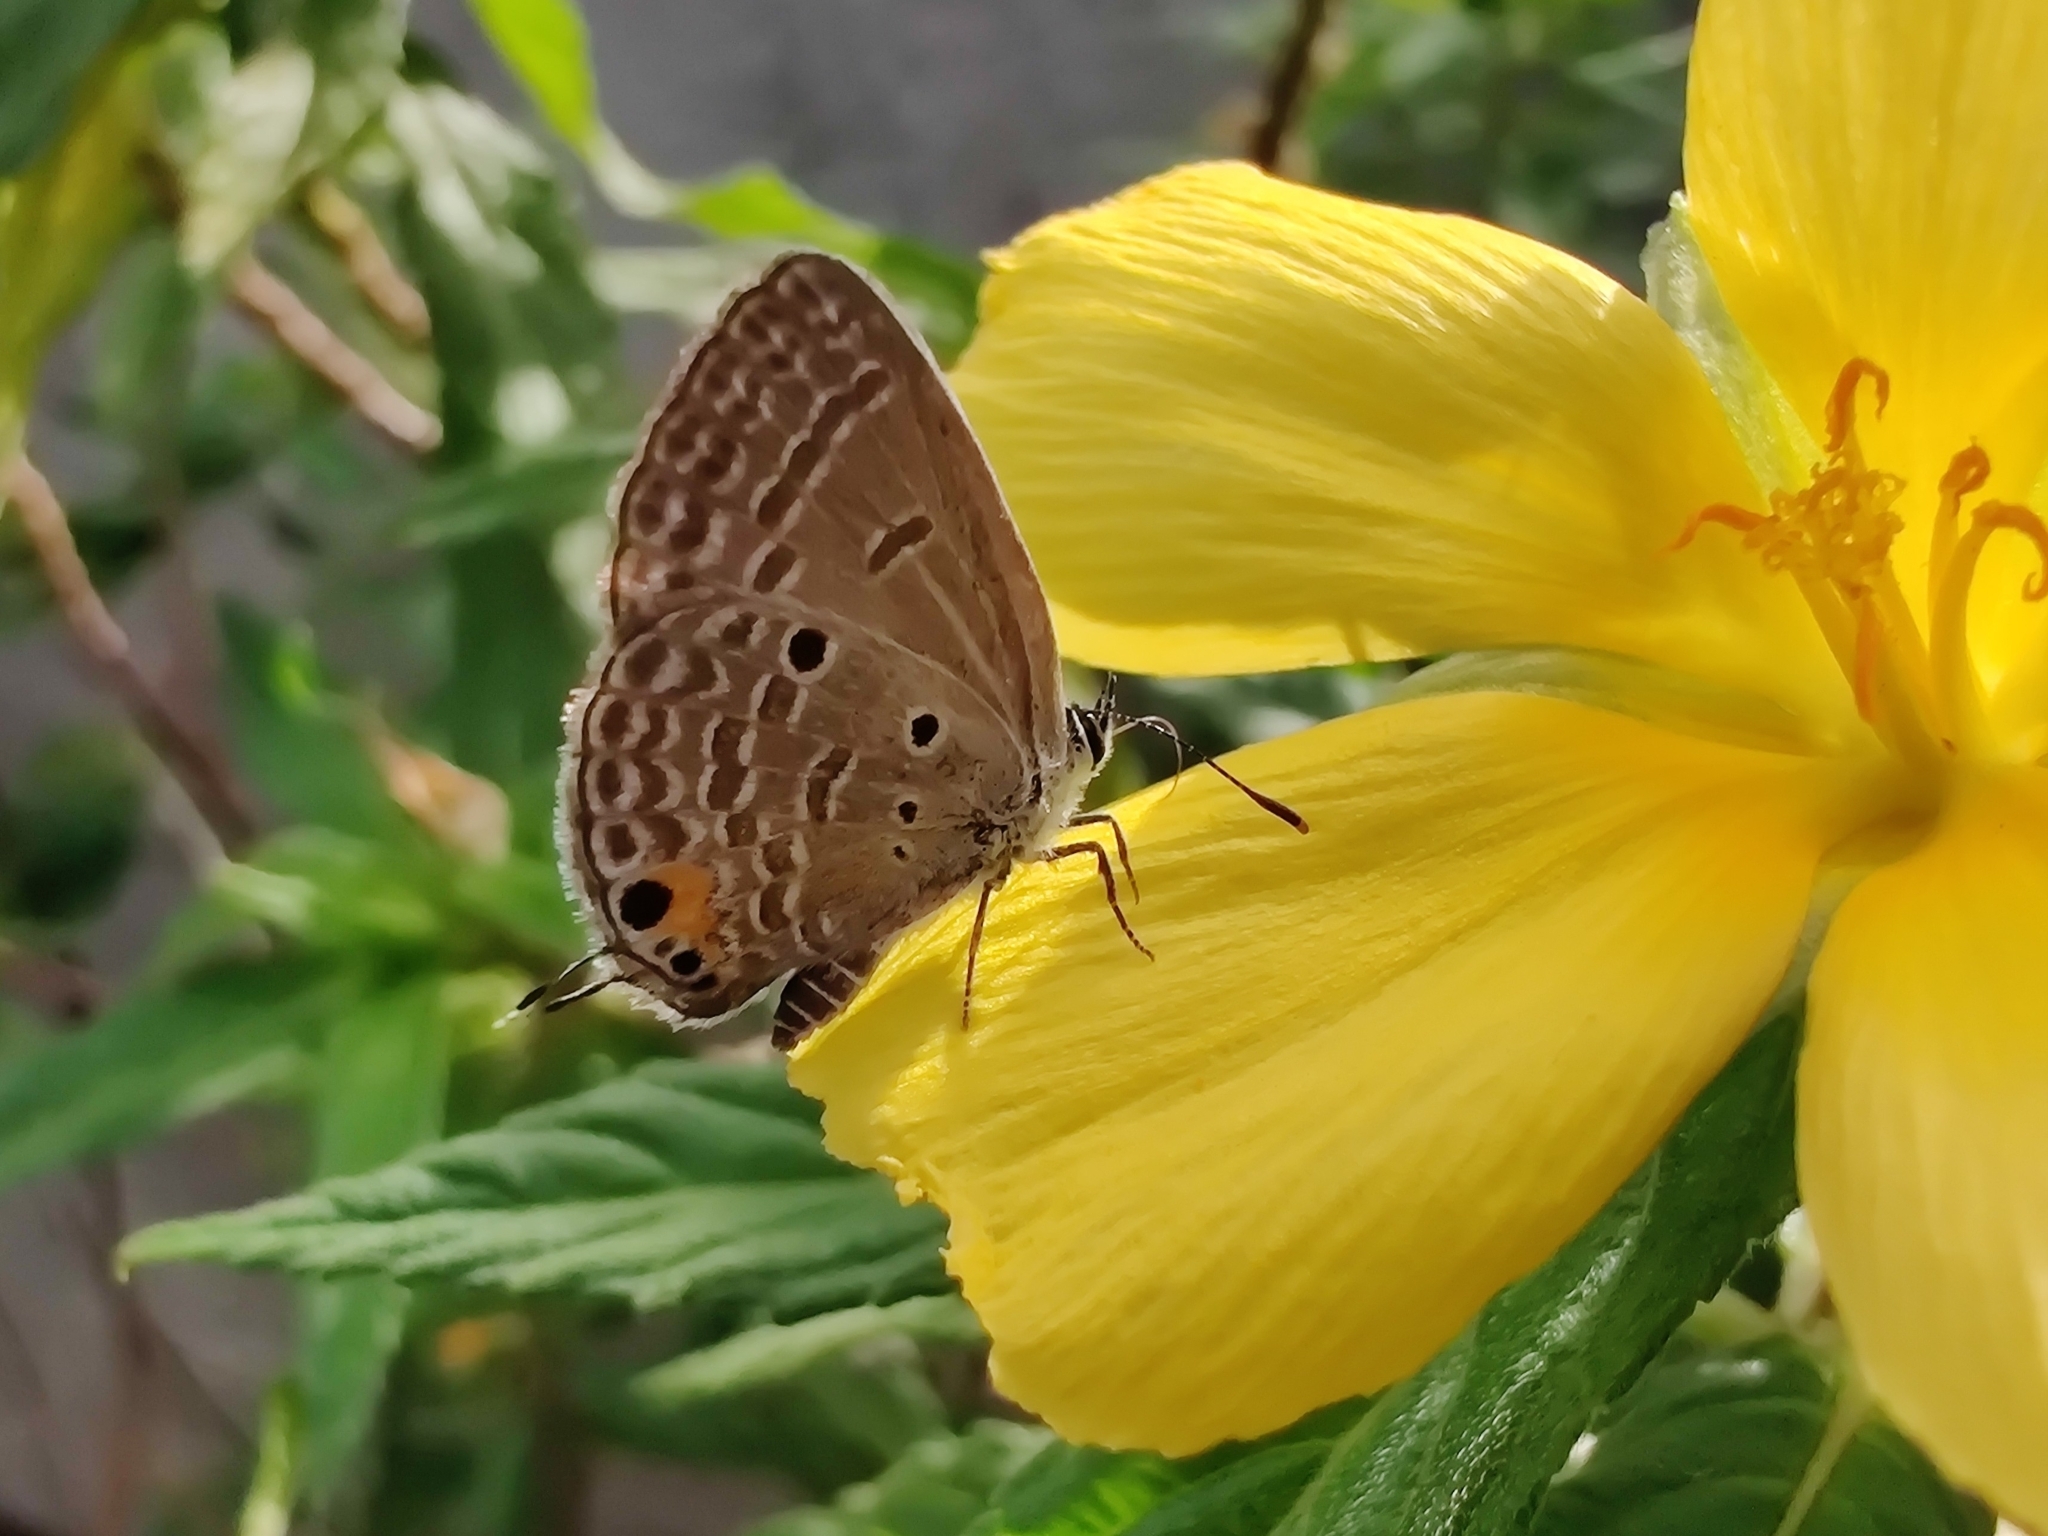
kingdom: Animalia
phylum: Arthropoda
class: Insecta
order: Lepidoptera
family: Lycaenidae
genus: Luthrodes
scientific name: Luthrodes pandava
